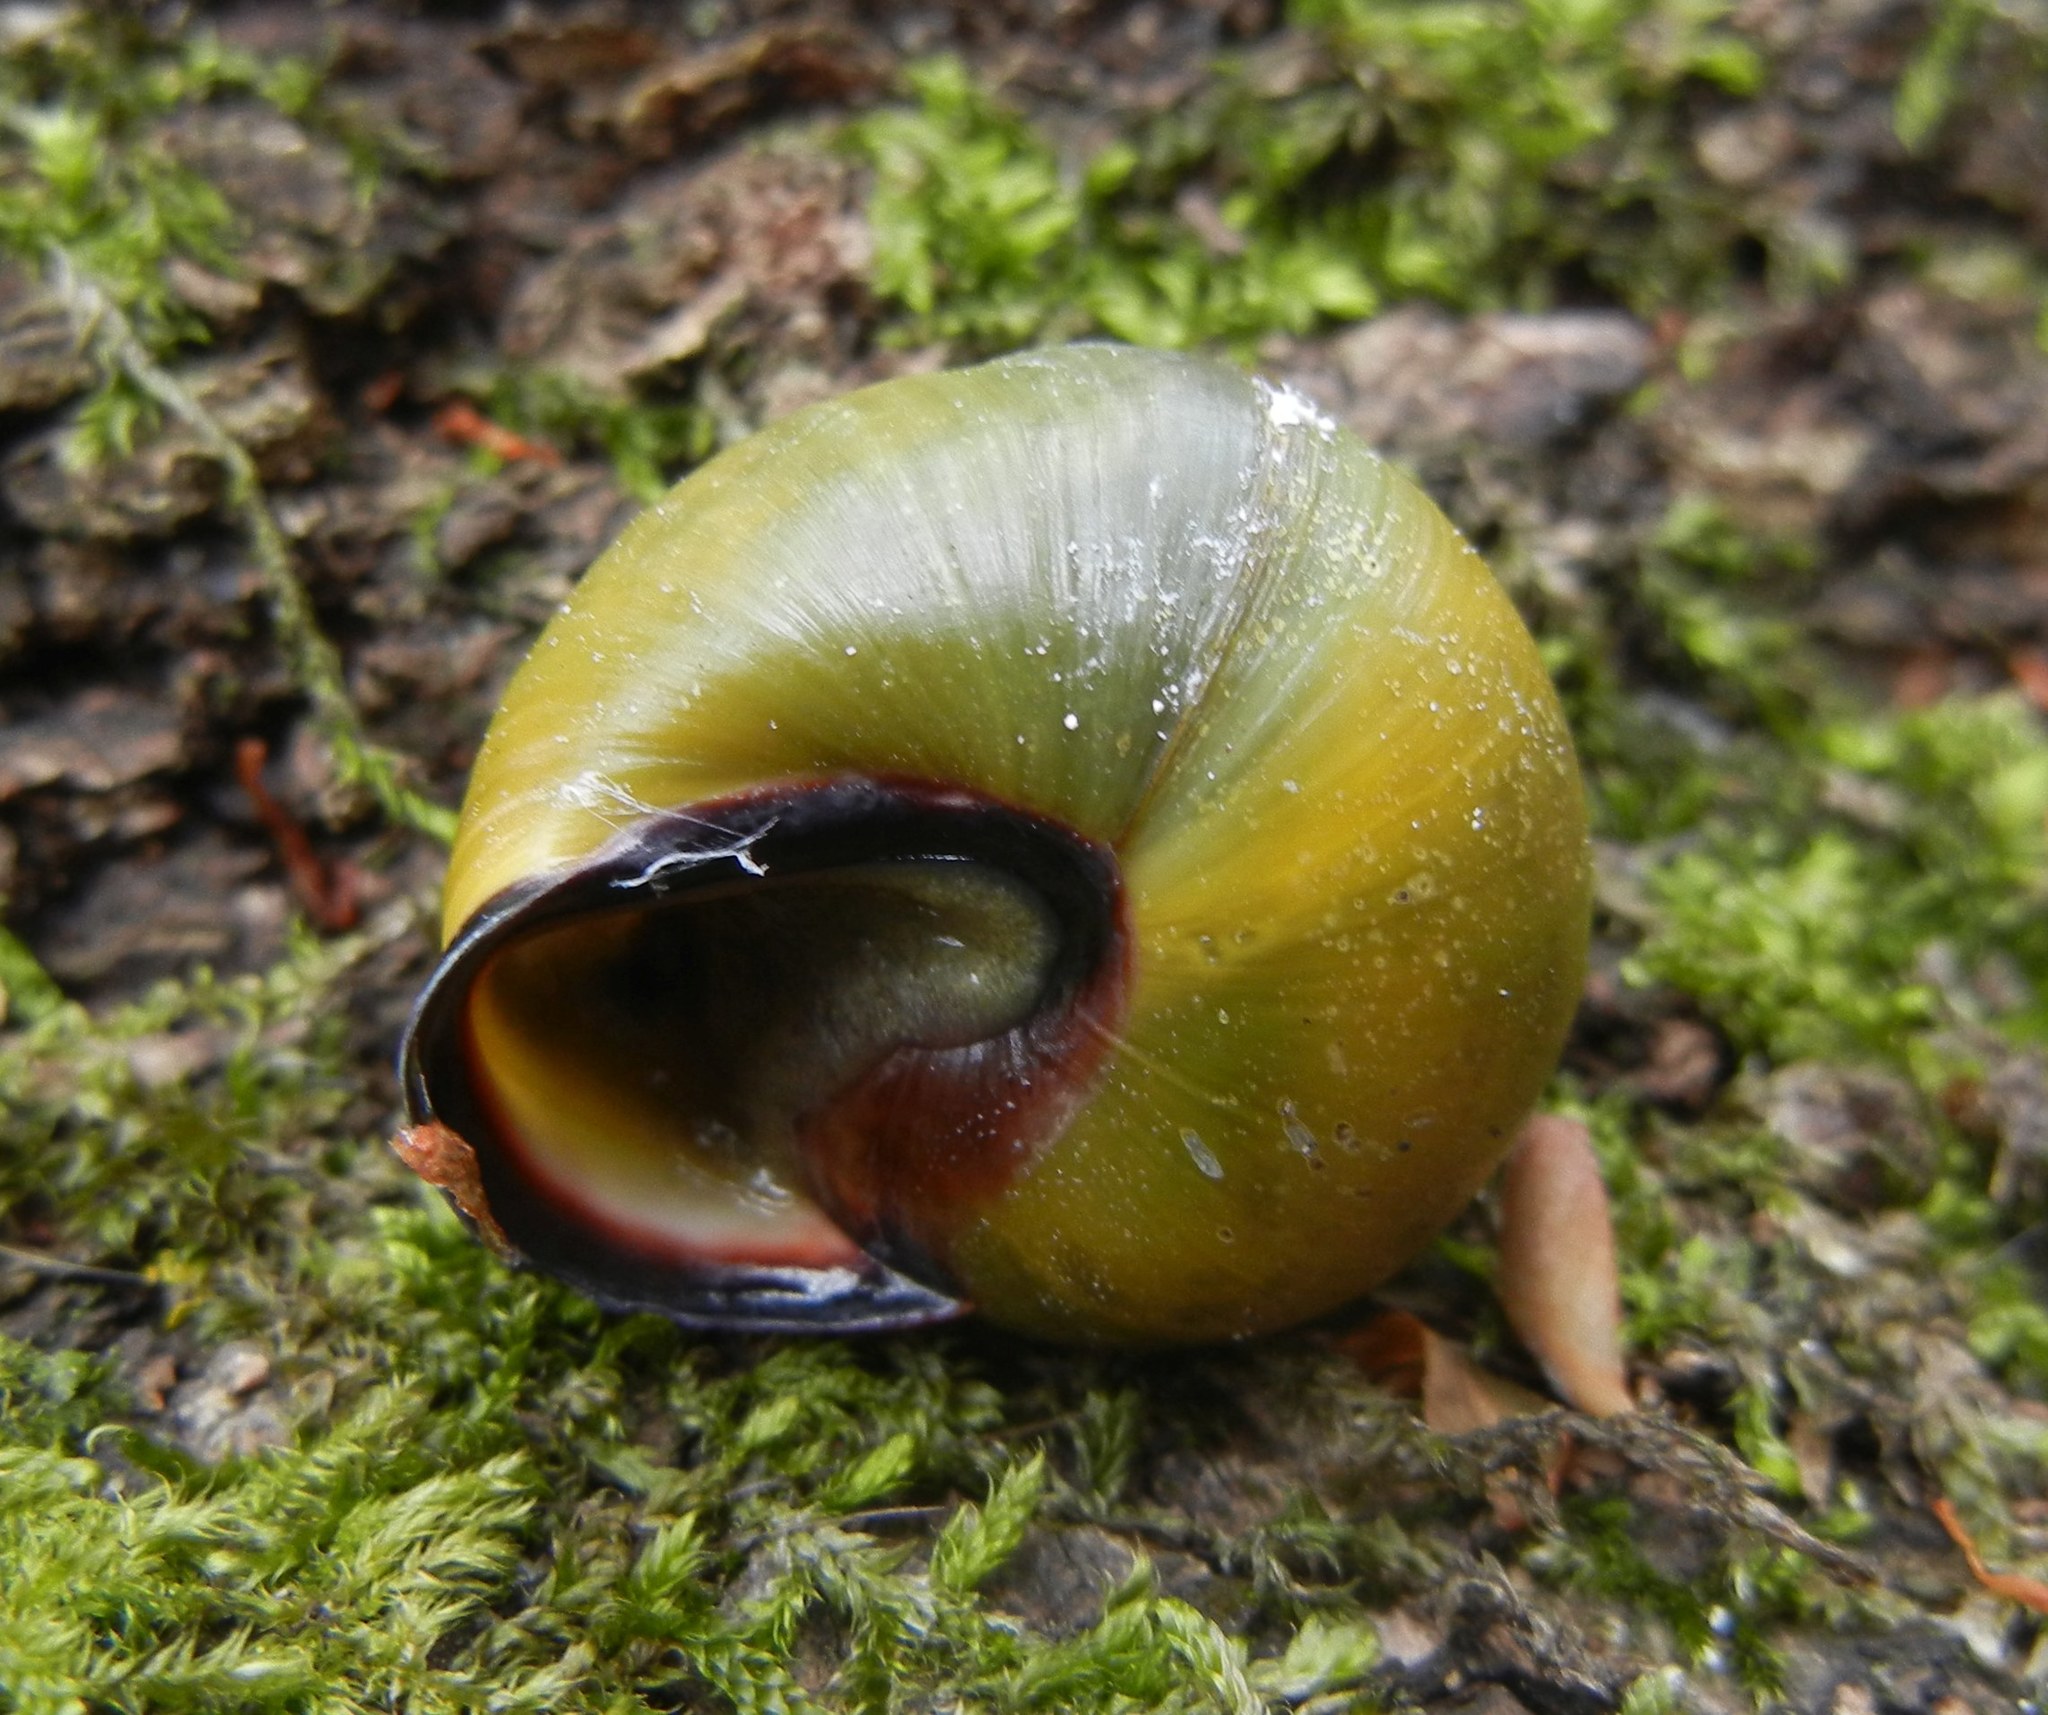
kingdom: Animalia
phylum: Mollusca
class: Gastropoda
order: Stylommatophora
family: Helicidae
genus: Cepaea
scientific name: Cepaea nemoralis
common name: Grovesnail
